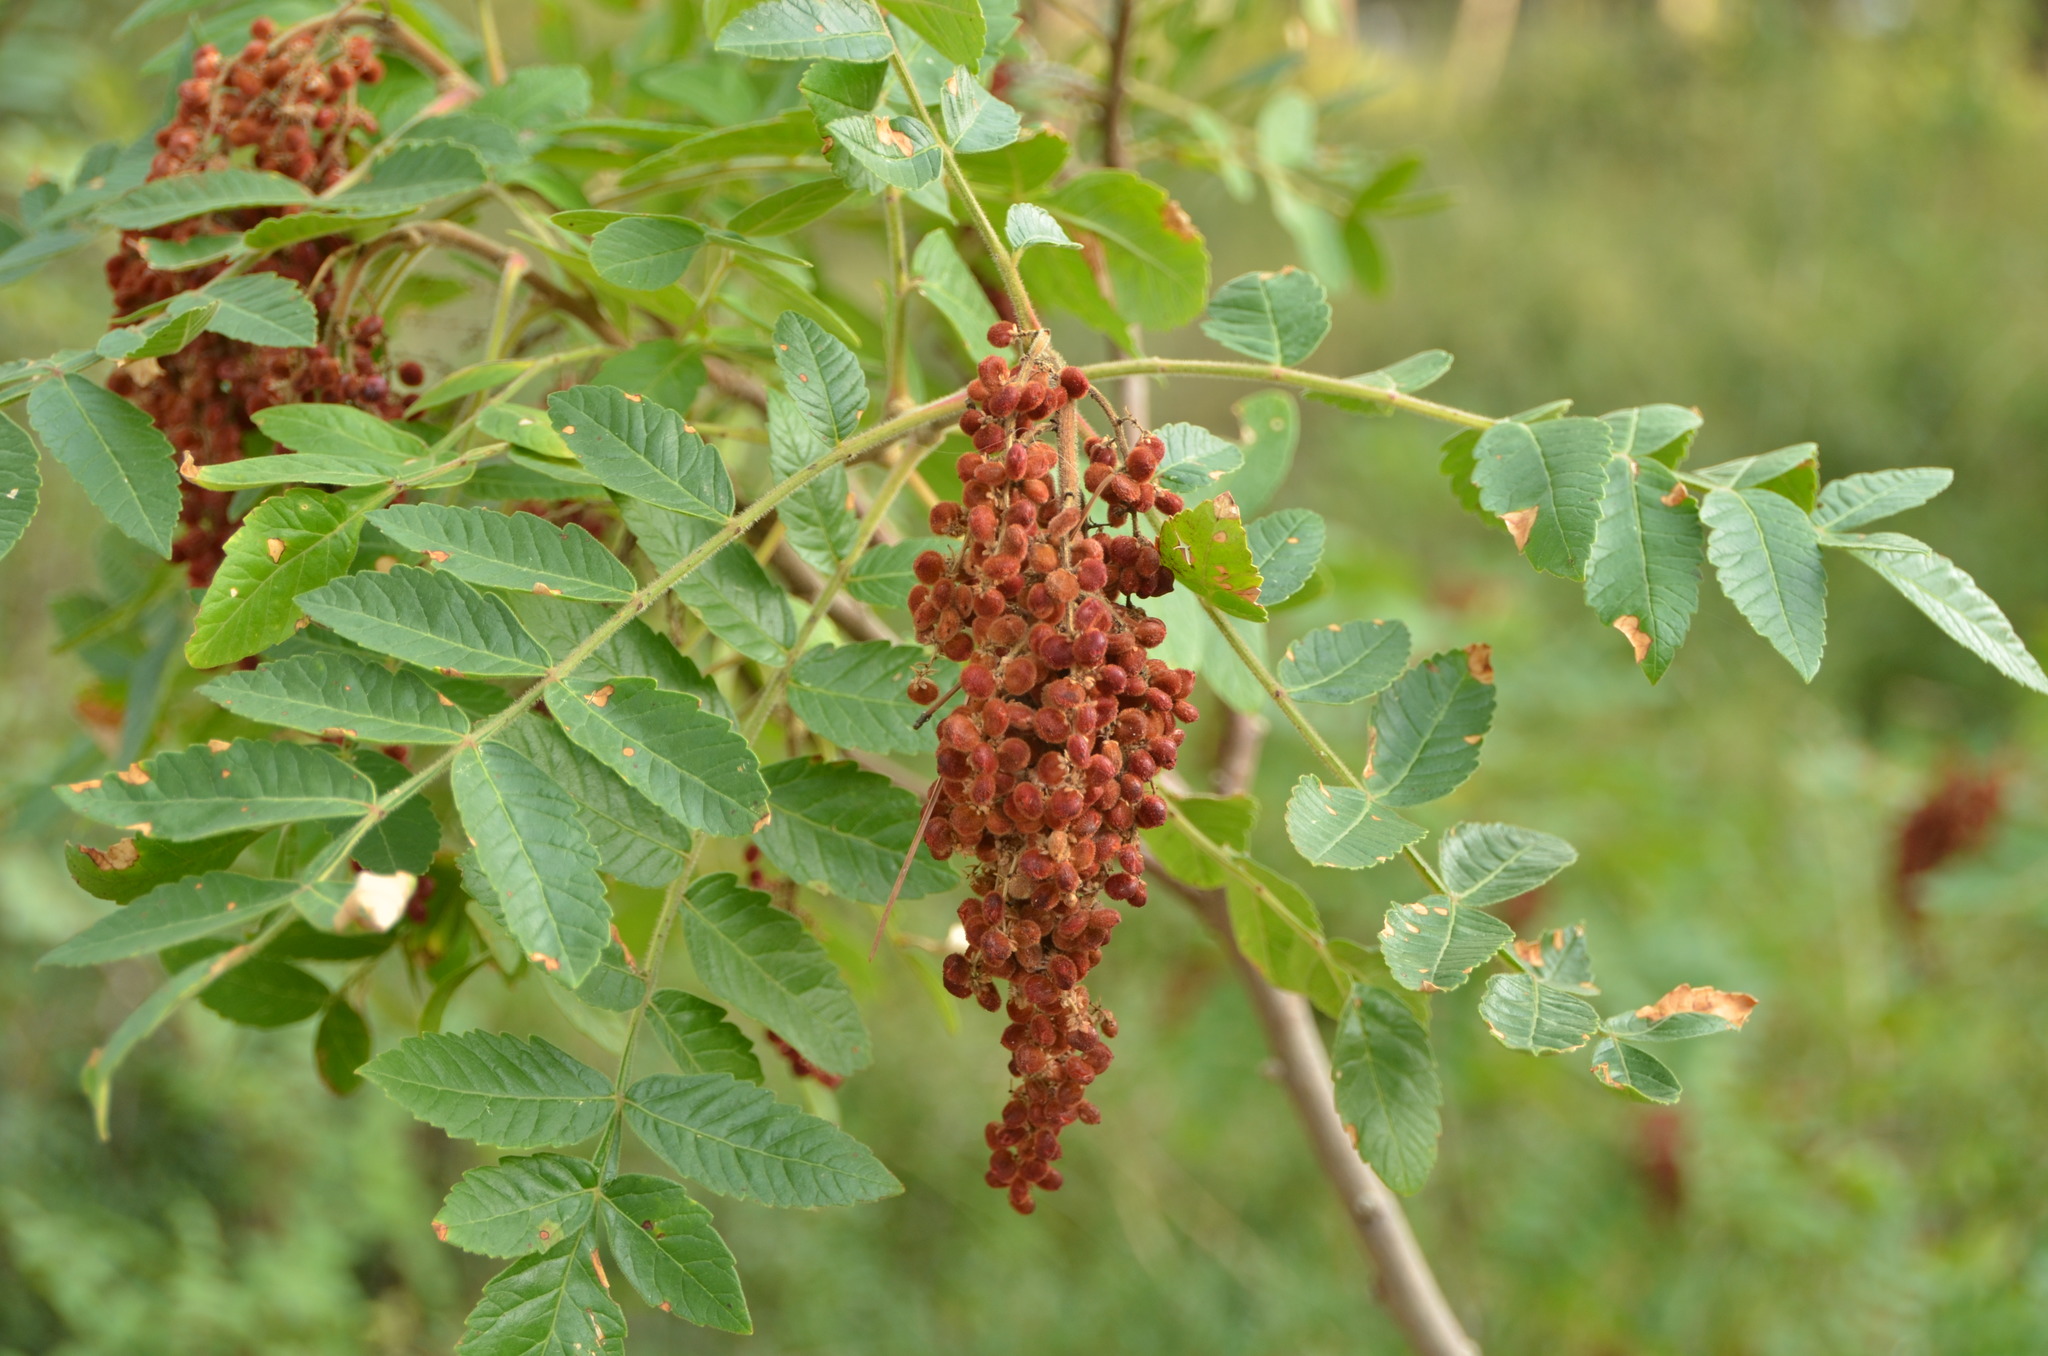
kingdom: Plantae
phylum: Tracheophyta
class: Magnoliopsida
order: Sapindales
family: Anacardiaceae
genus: Rhus
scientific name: Rhus coriaria
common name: Tanner's sumach
